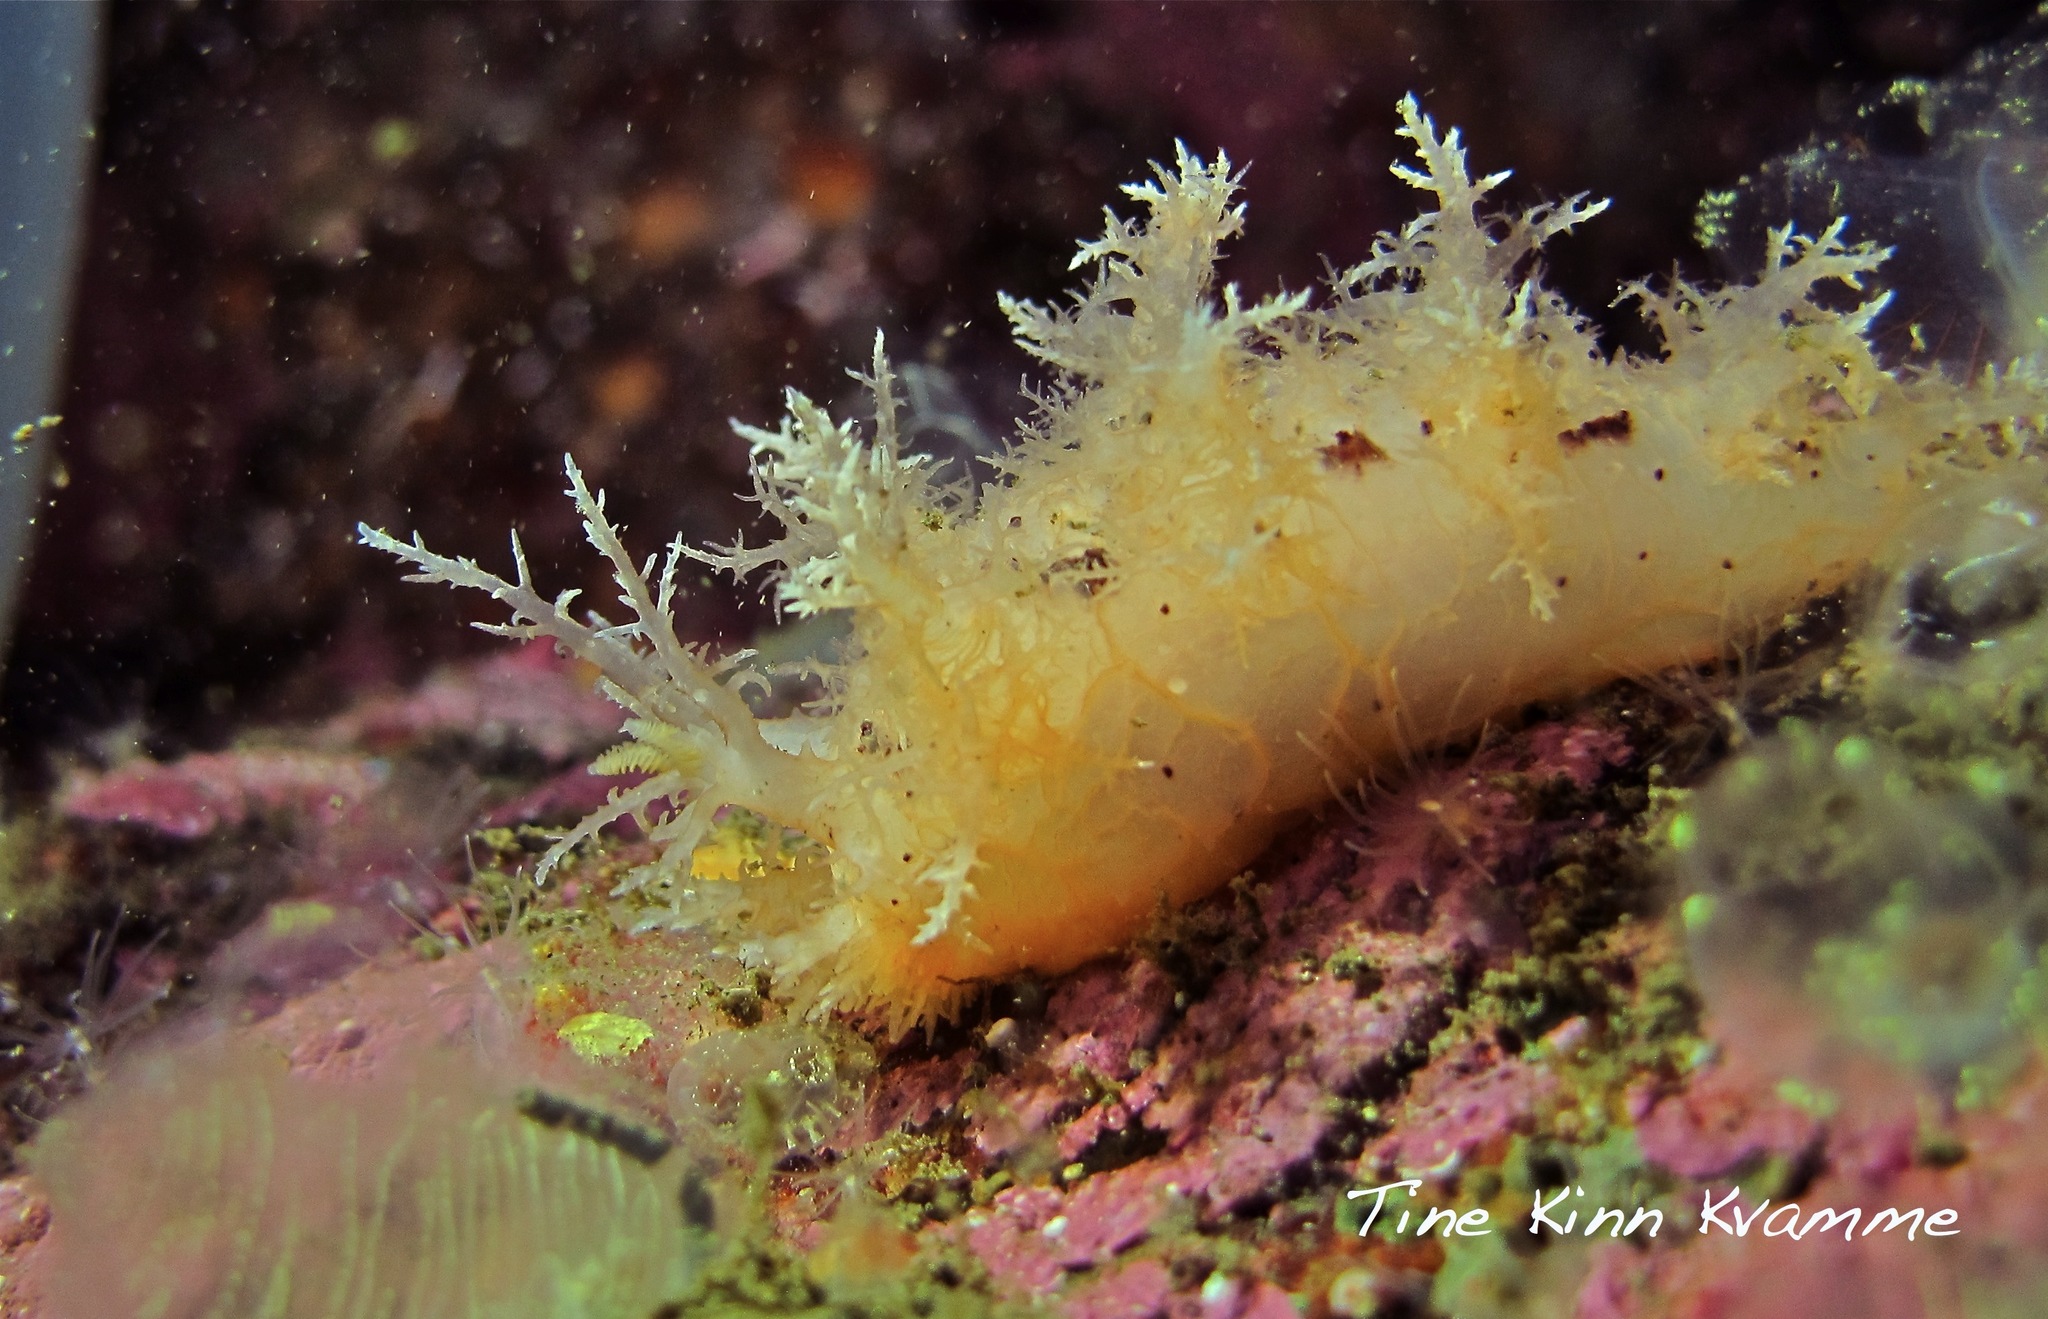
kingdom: Animalia
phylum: Mollusca
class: Gastropoda
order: Nudibranchia
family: Dendronotidae
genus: Dendronotus
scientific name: Dendronotus frondosus
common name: Bushy-backed nudibranch
